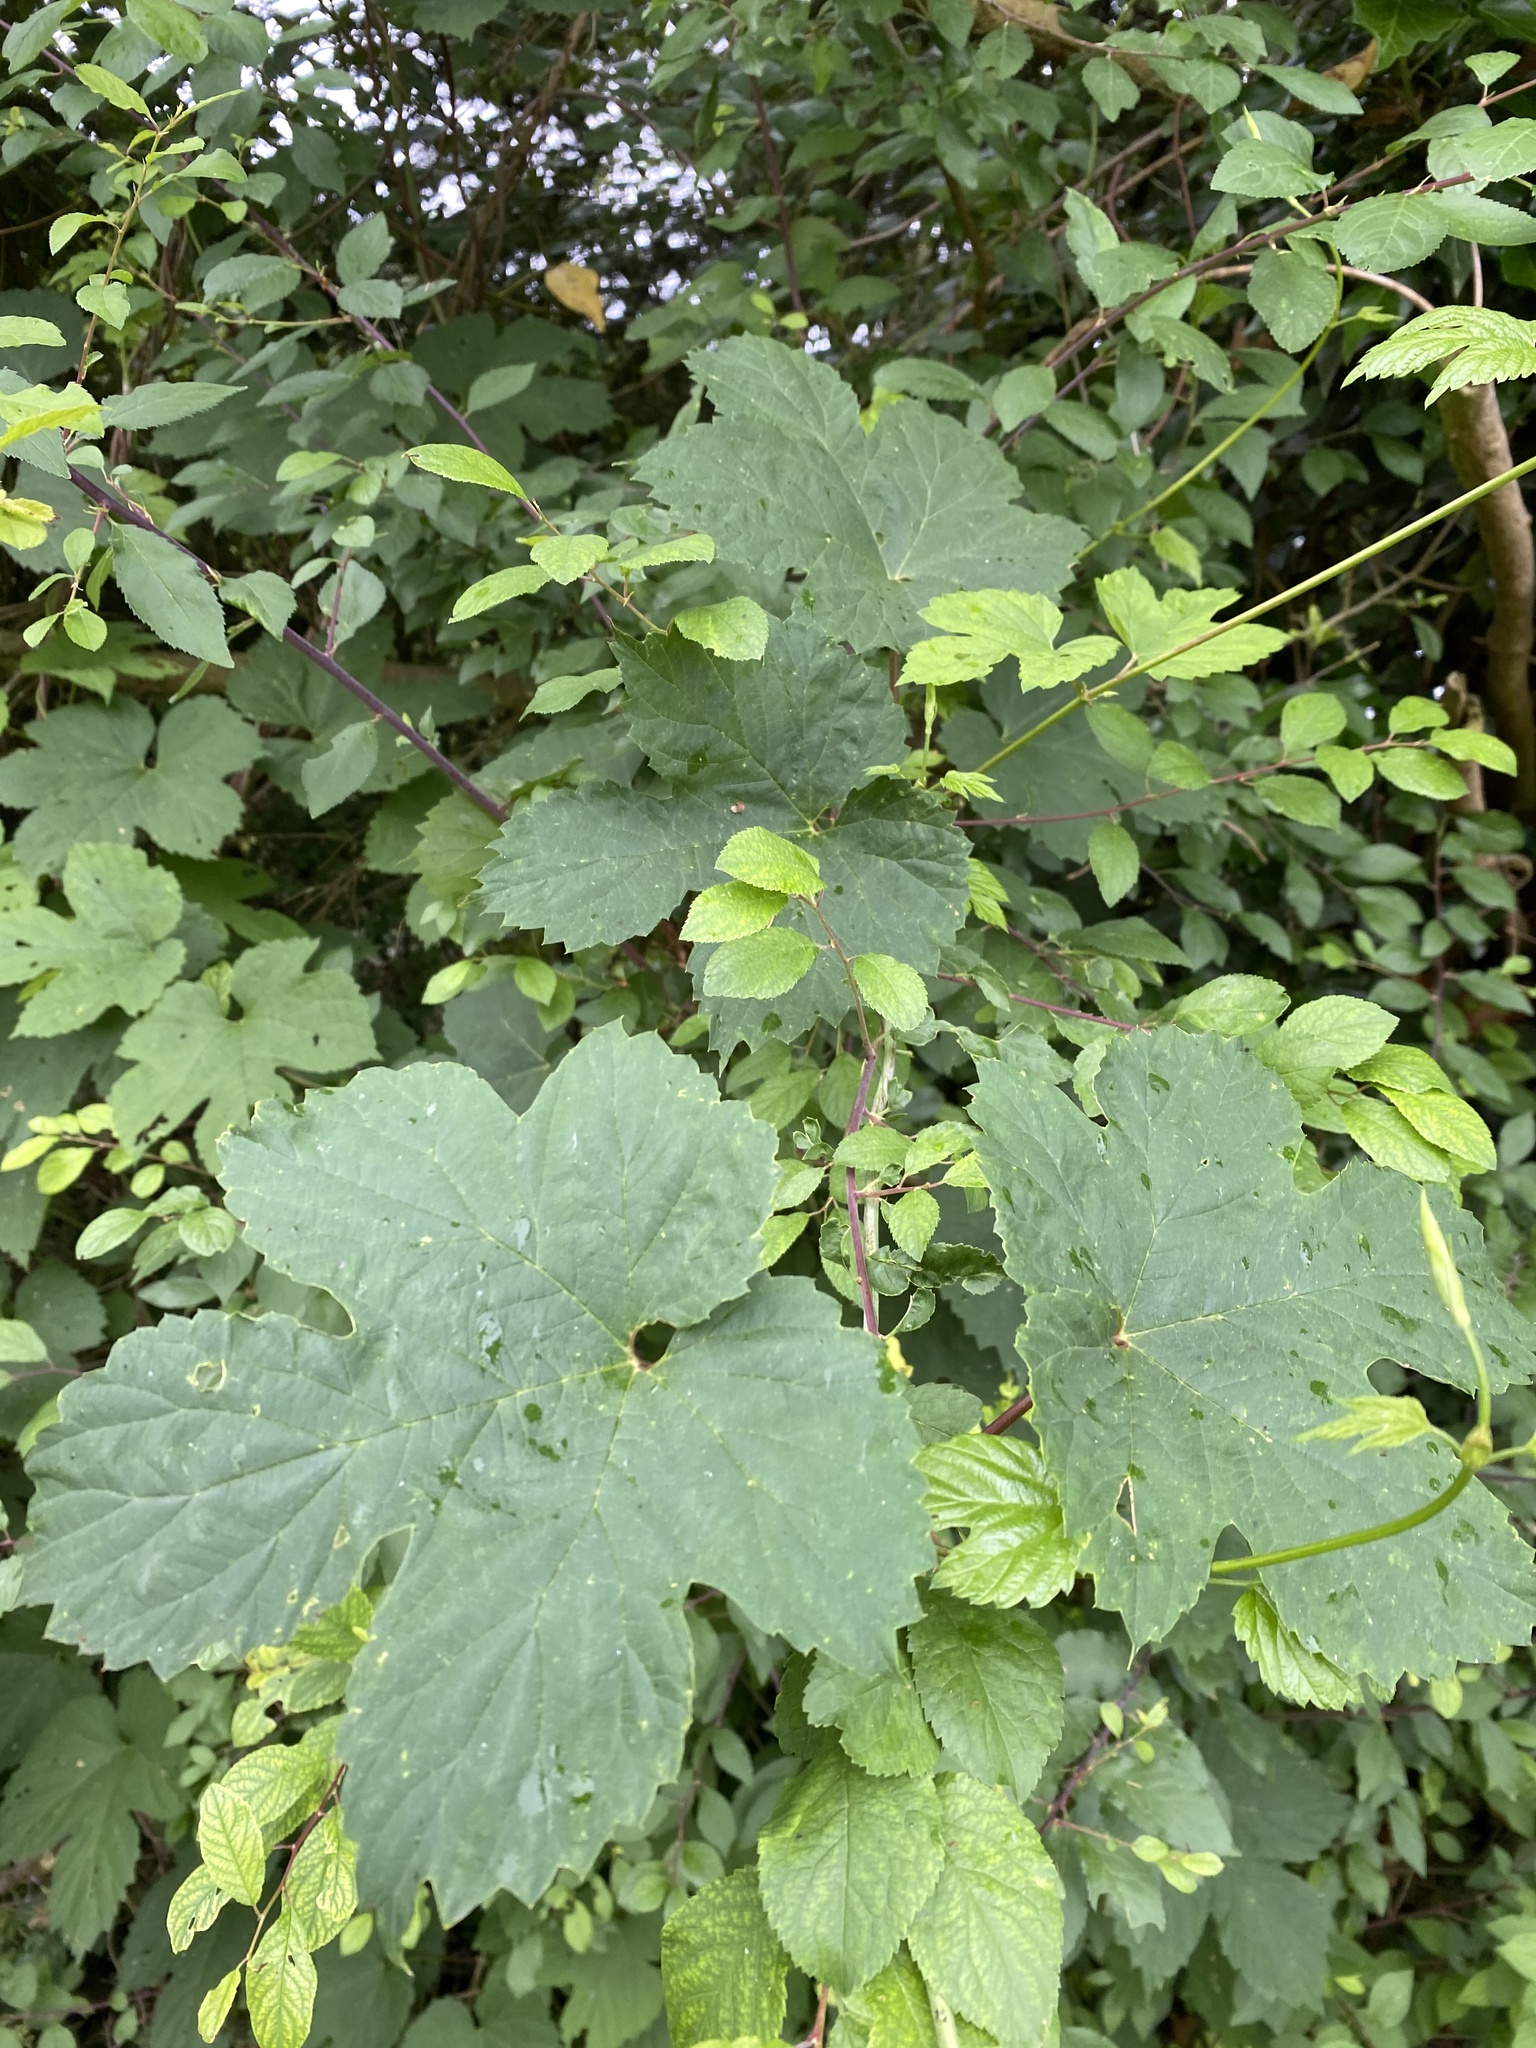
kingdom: Plantae
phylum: Tracheophyta
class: Magnoliopsida
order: Rosales
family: Cannabaceae
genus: Humulus
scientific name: Humulus lupulus
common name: Hop
